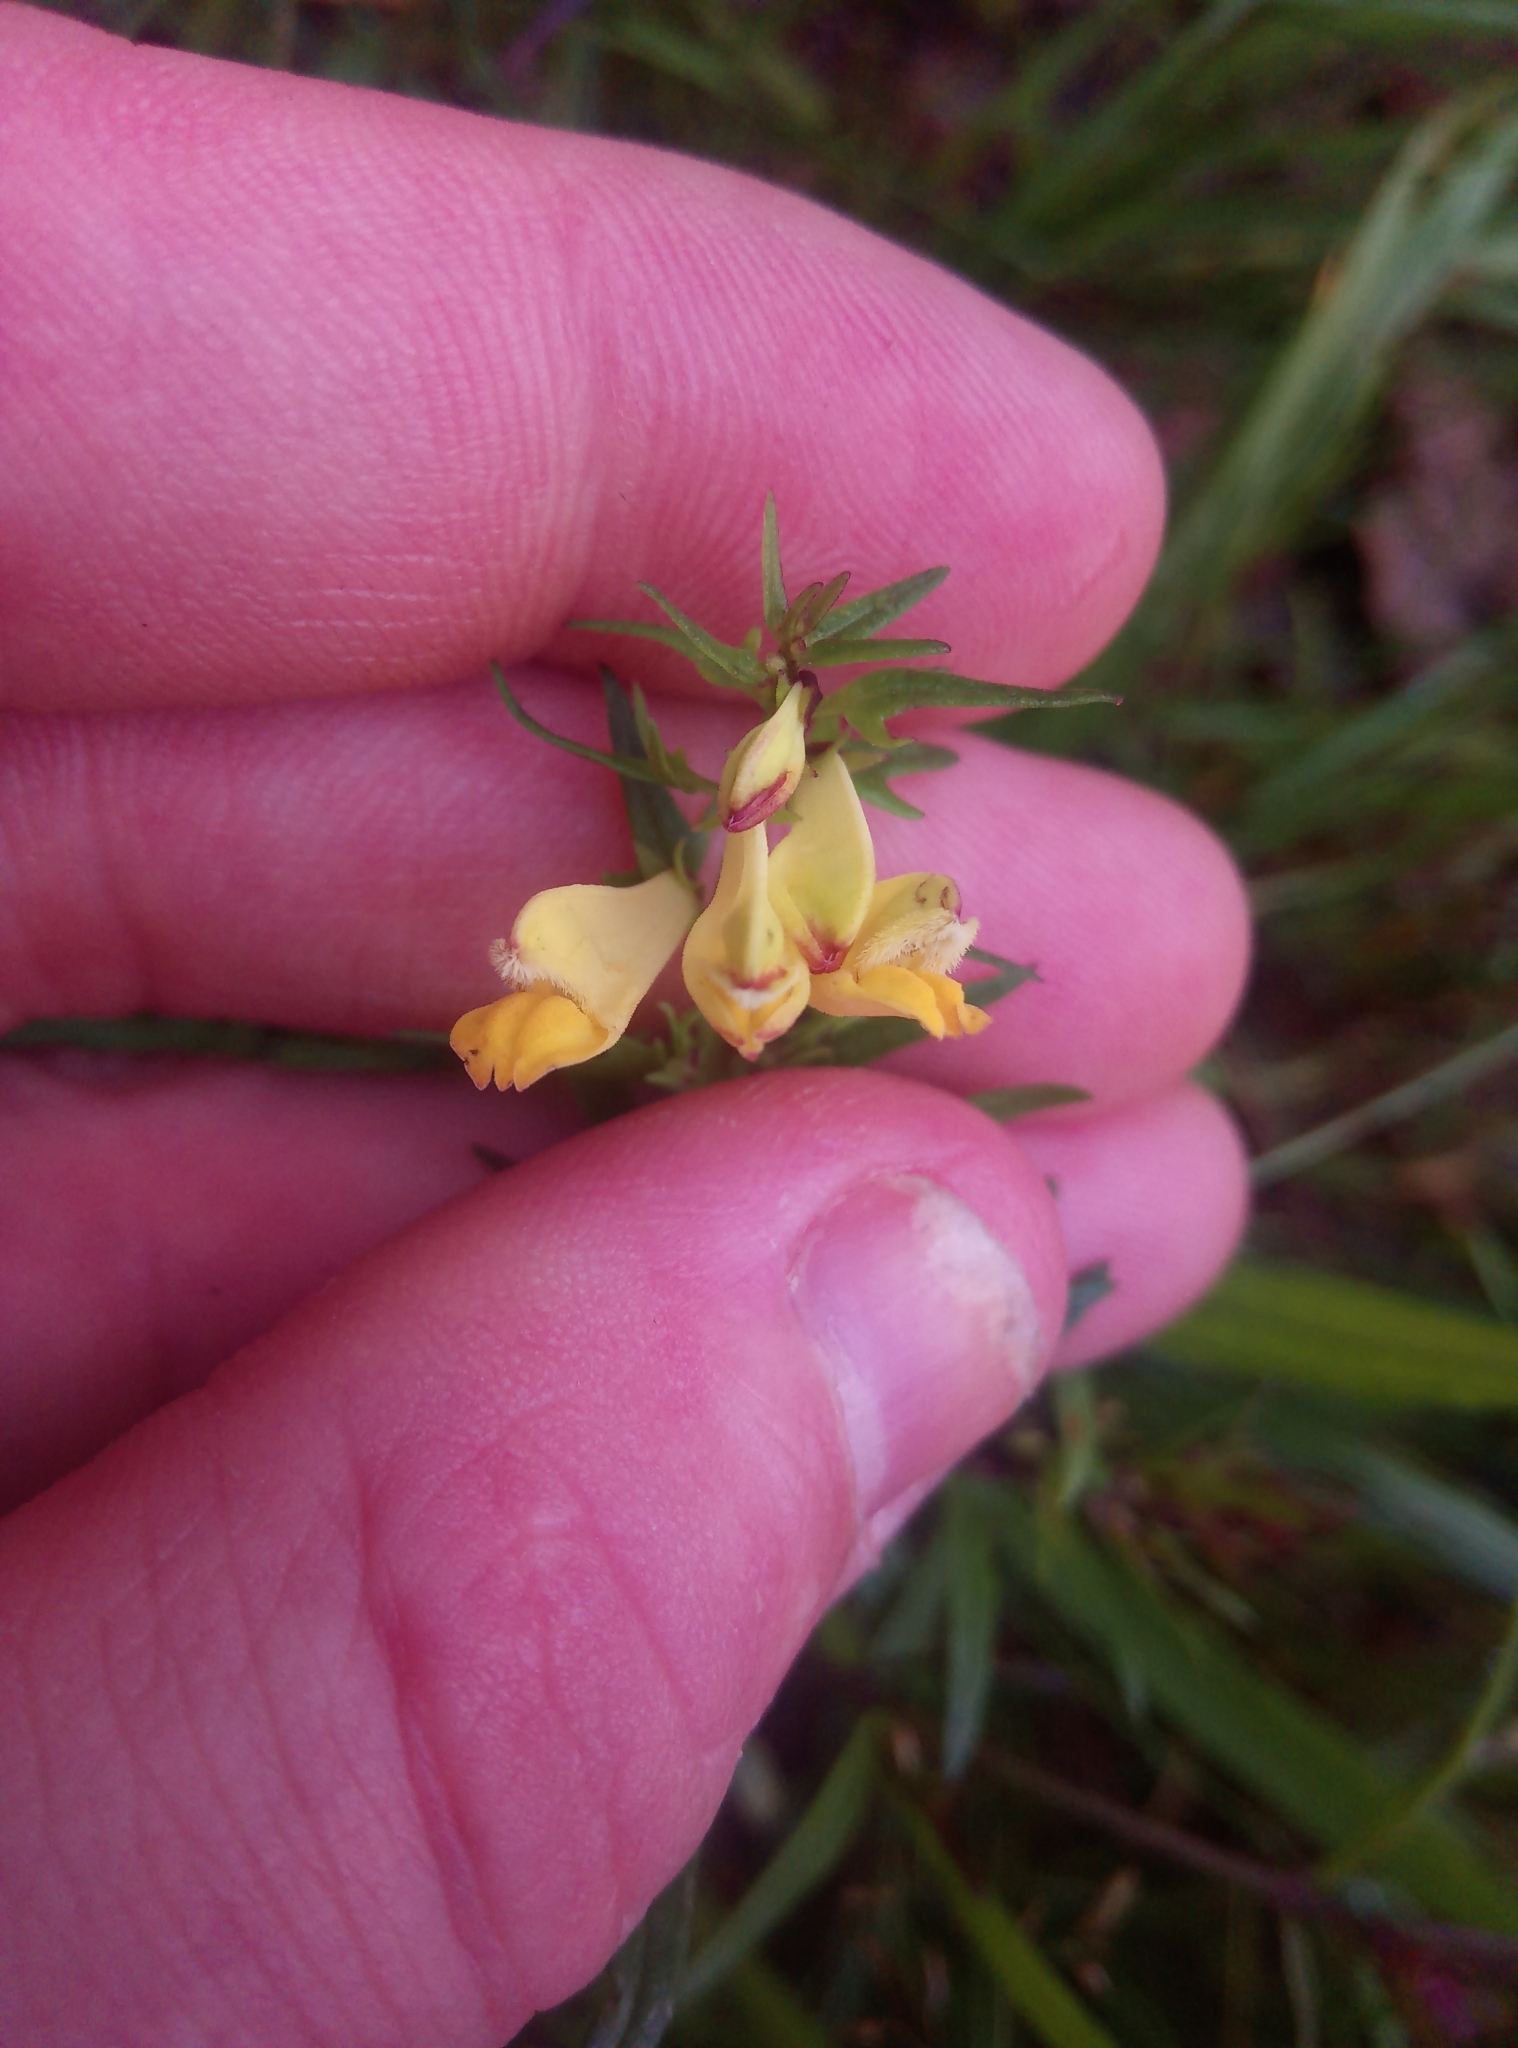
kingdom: Plantae
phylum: Tracheophyta
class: Magnoliopsida
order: Lamiales
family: Orobanchaceae
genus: Melampyrum
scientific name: Melampyrum pratense
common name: Common cow-wheat
